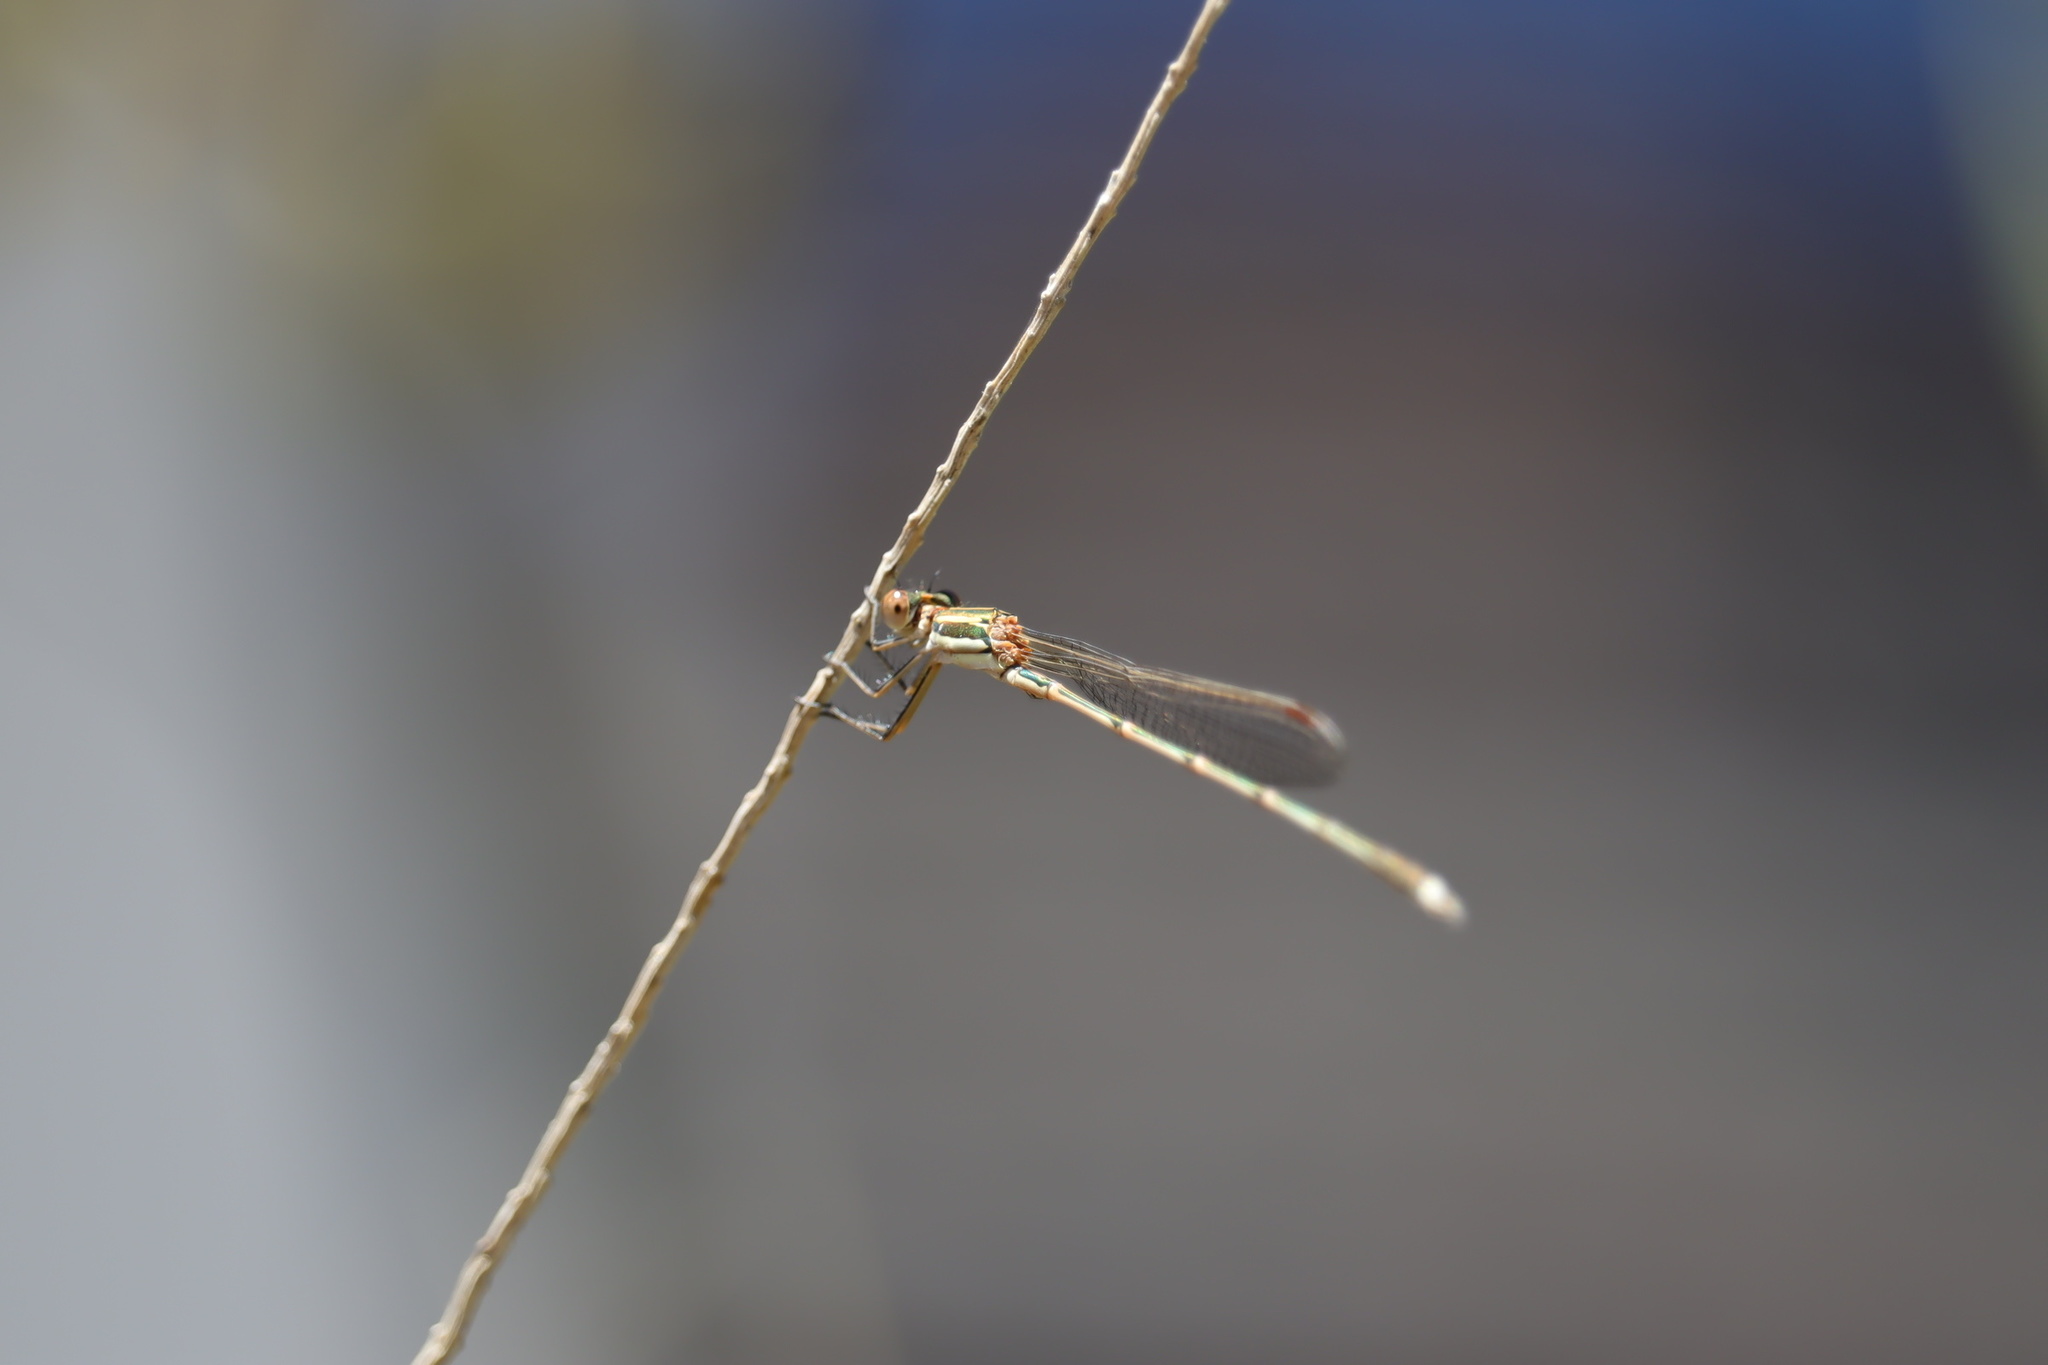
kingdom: Animalia
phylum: Arthropoda
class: Insecta
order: Odonata
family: Lestidae
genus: Austrolestes
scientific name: Austrolestes analis
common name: Slender ringtail
